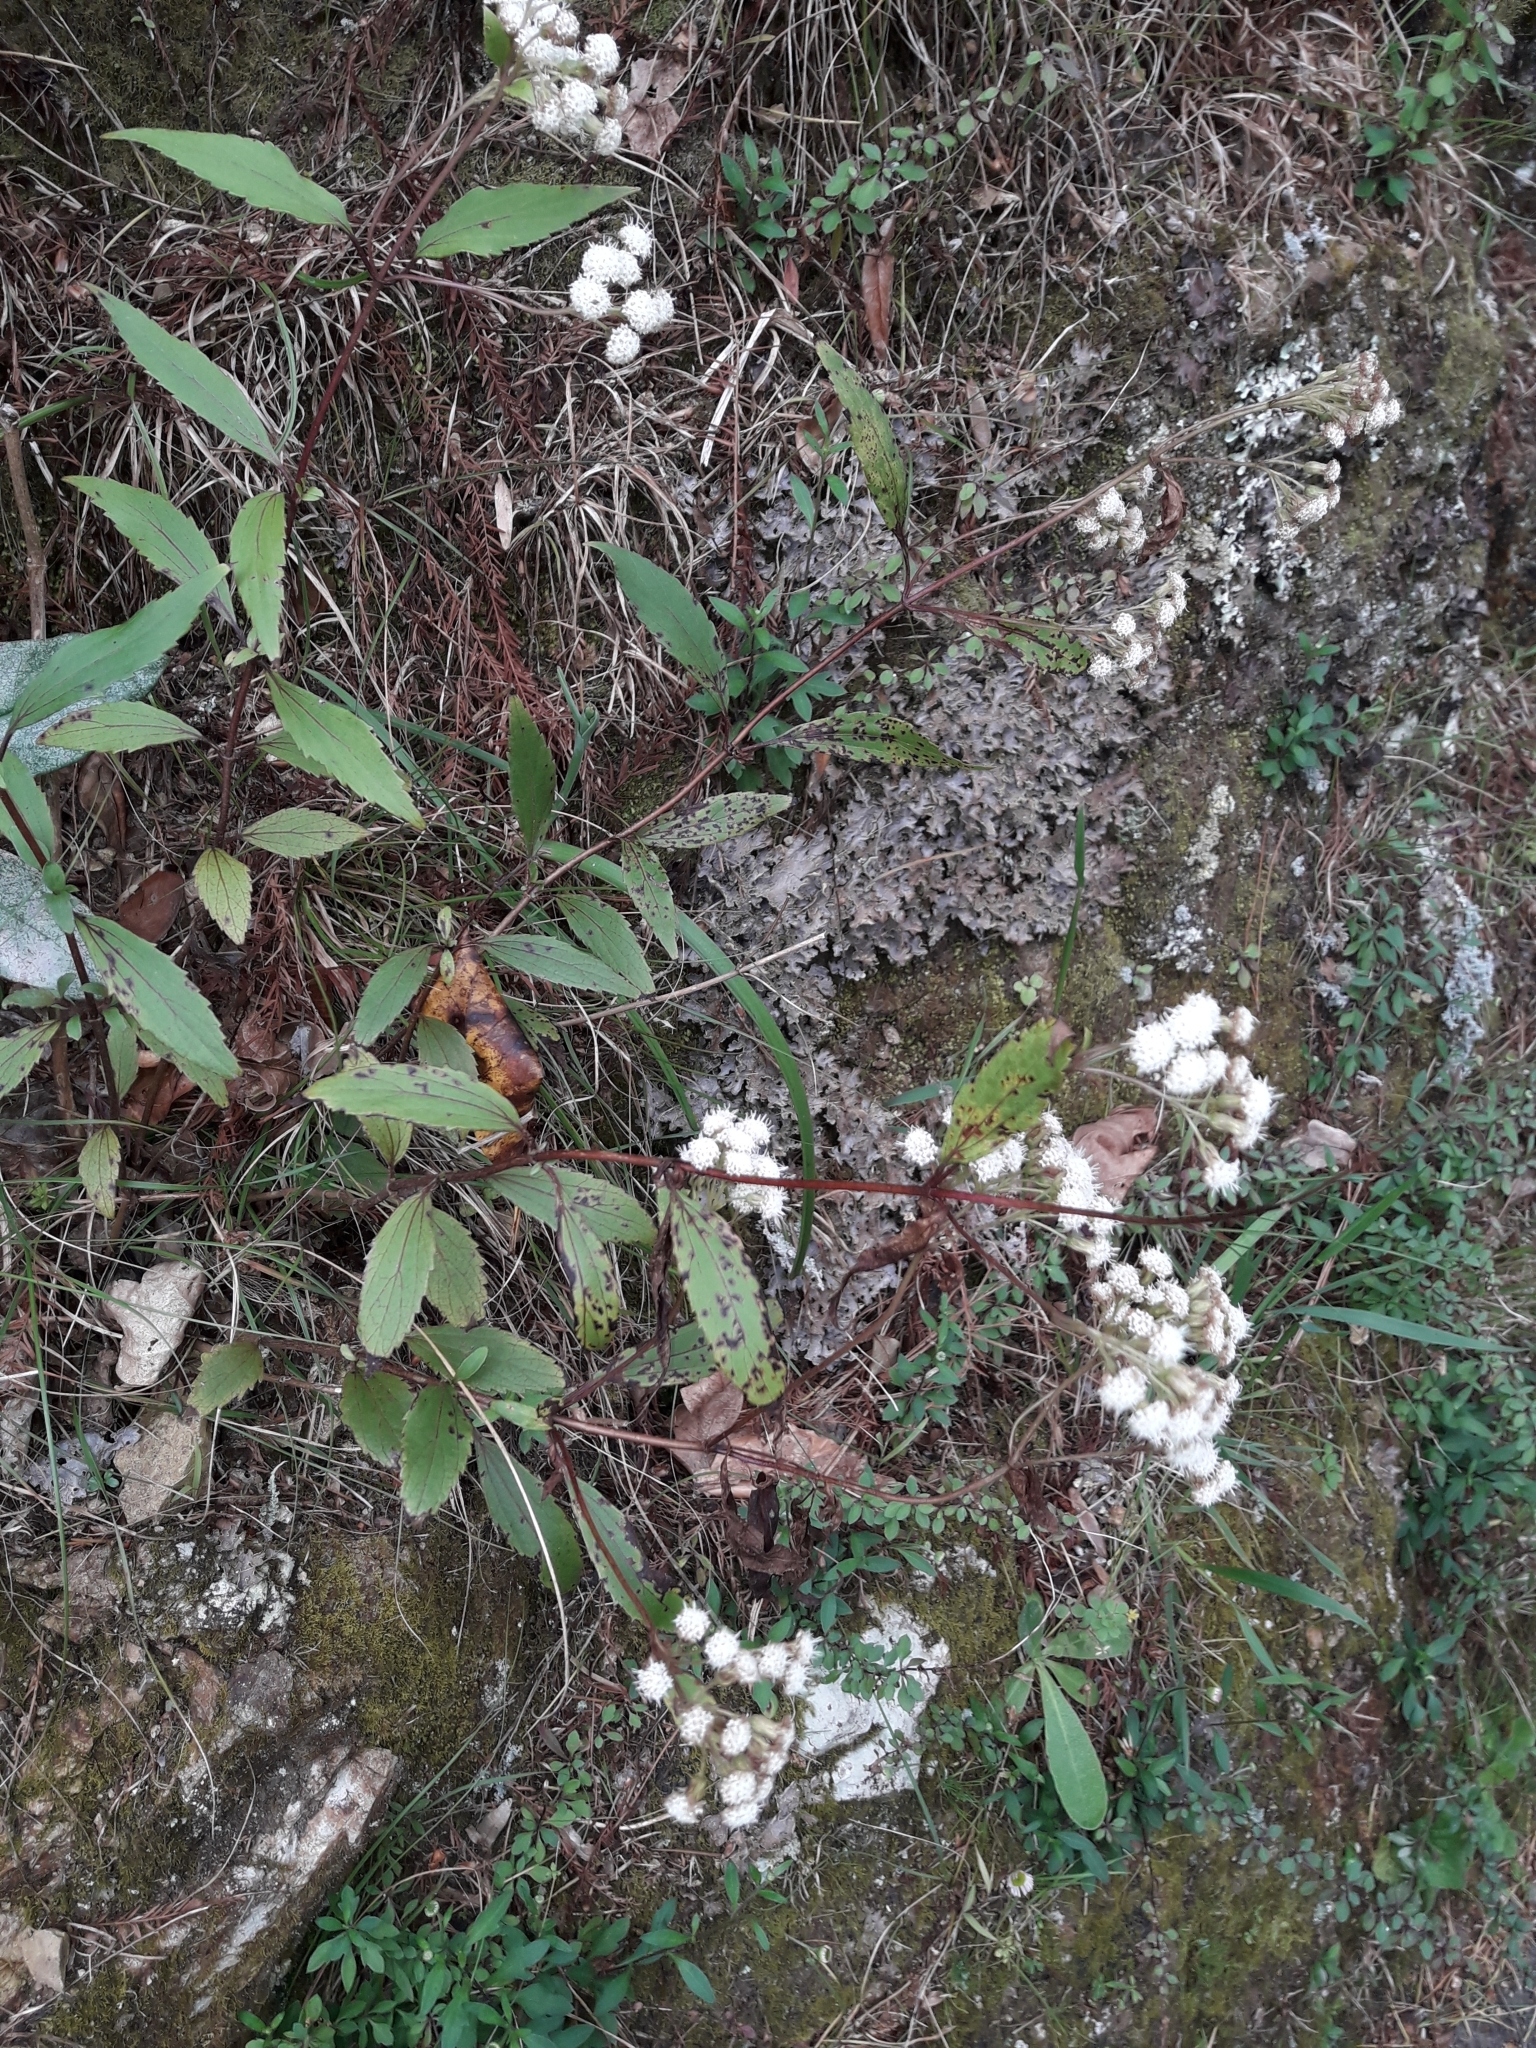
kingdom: Plantae
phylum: Tracheophyta
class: Magnoliopsida
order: Asterales
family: Asteraceae
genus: Ageratina
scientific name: Ageratina riparia
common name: Creeping croftonweed
